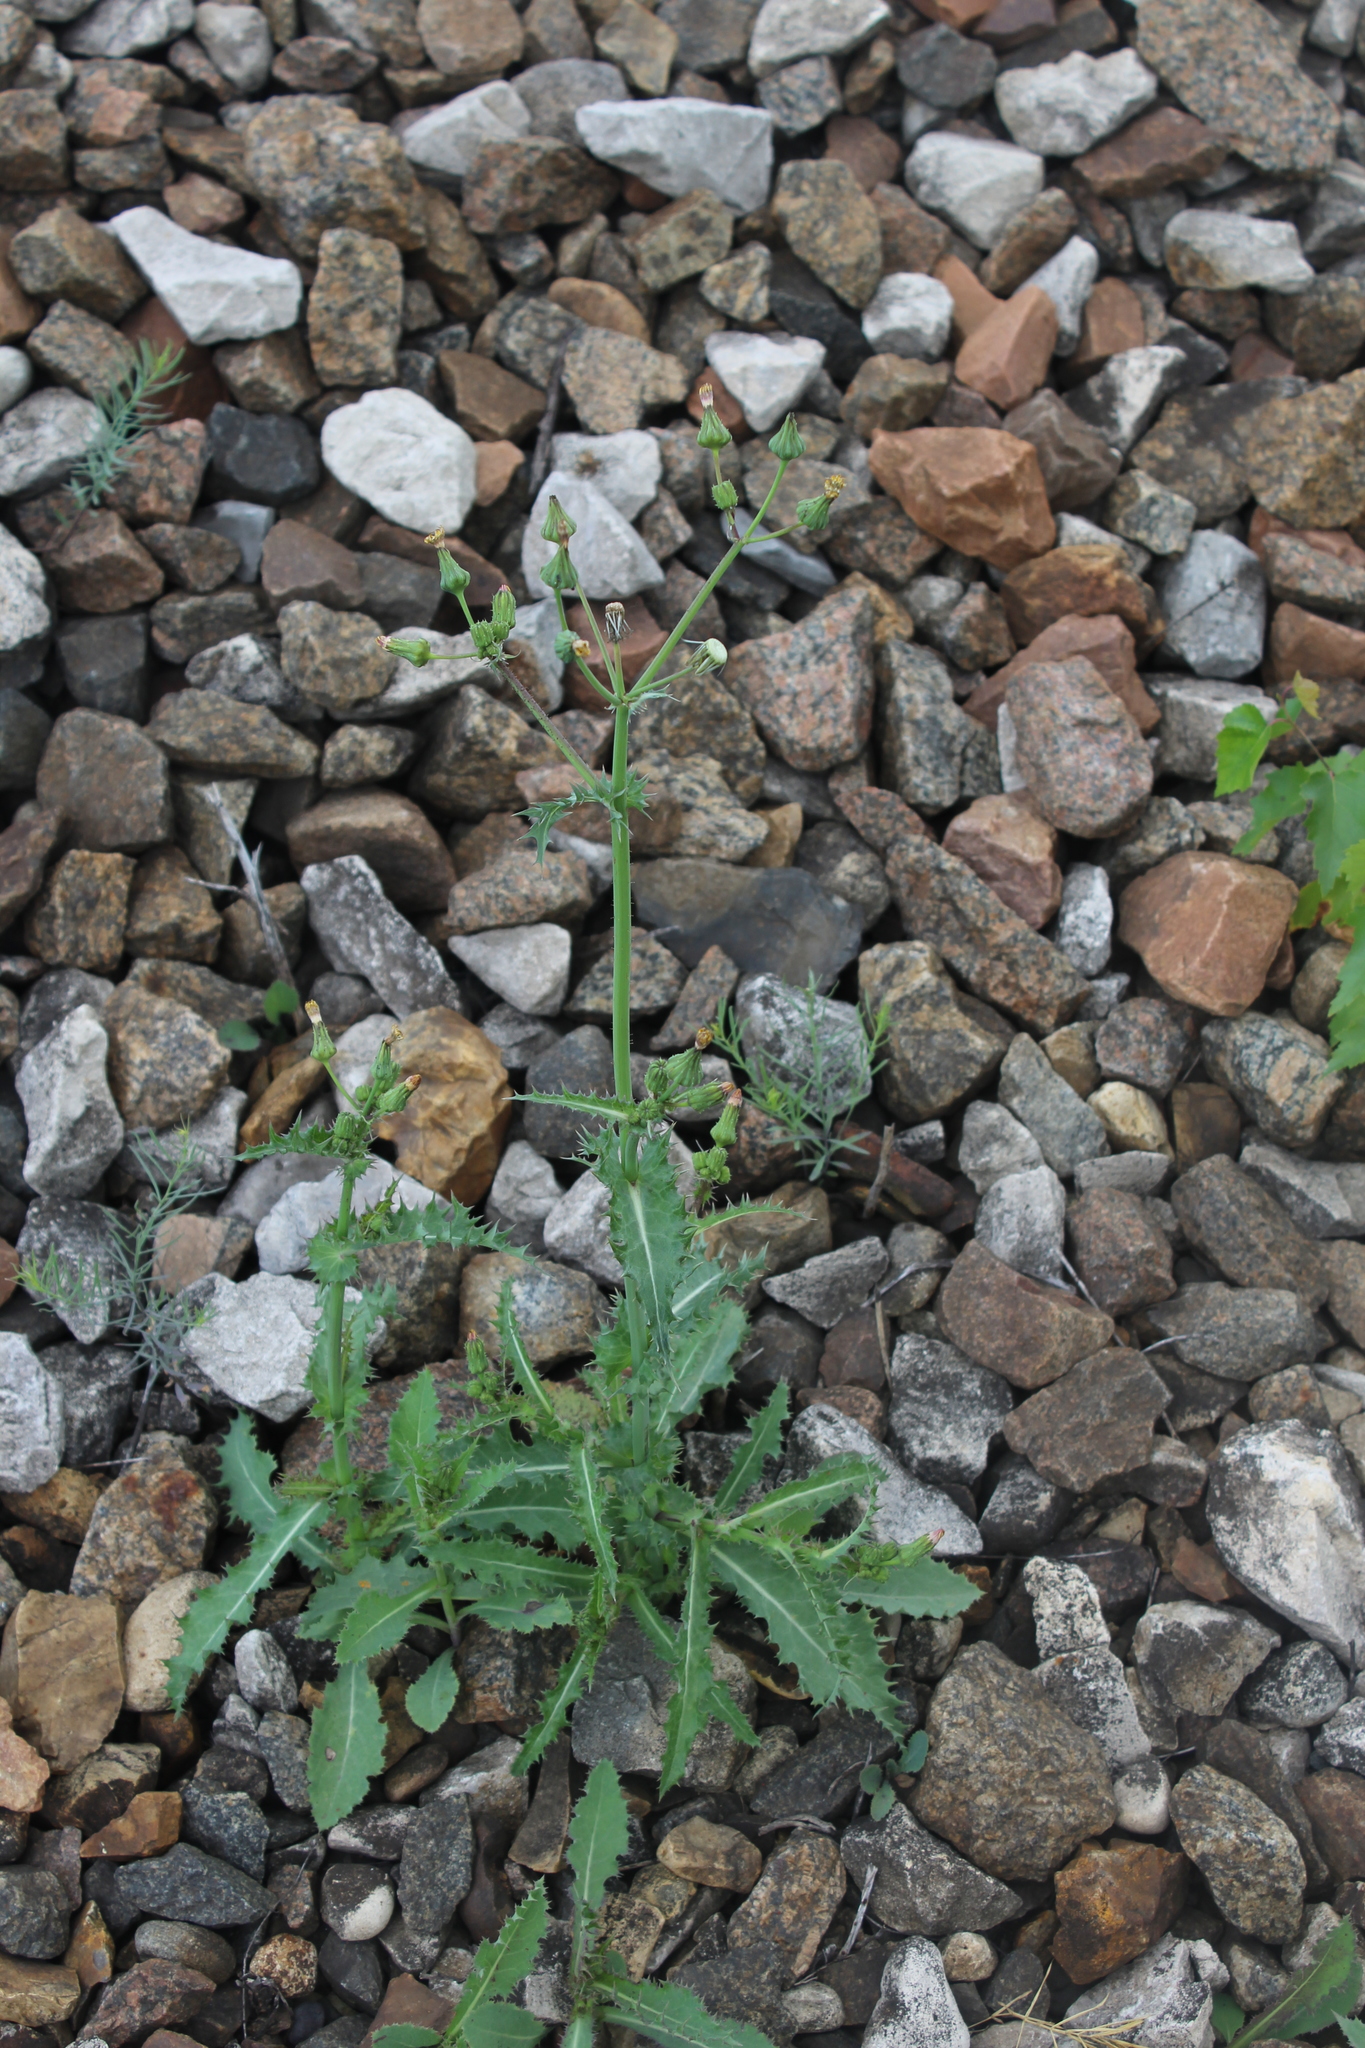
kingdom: Plantae
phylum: Tracheophyta
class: Magnoliopsida
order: Asterales
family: Asteraceae
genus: Sonchus
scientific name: Sonchus asper
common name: Prickly sow-thistle
